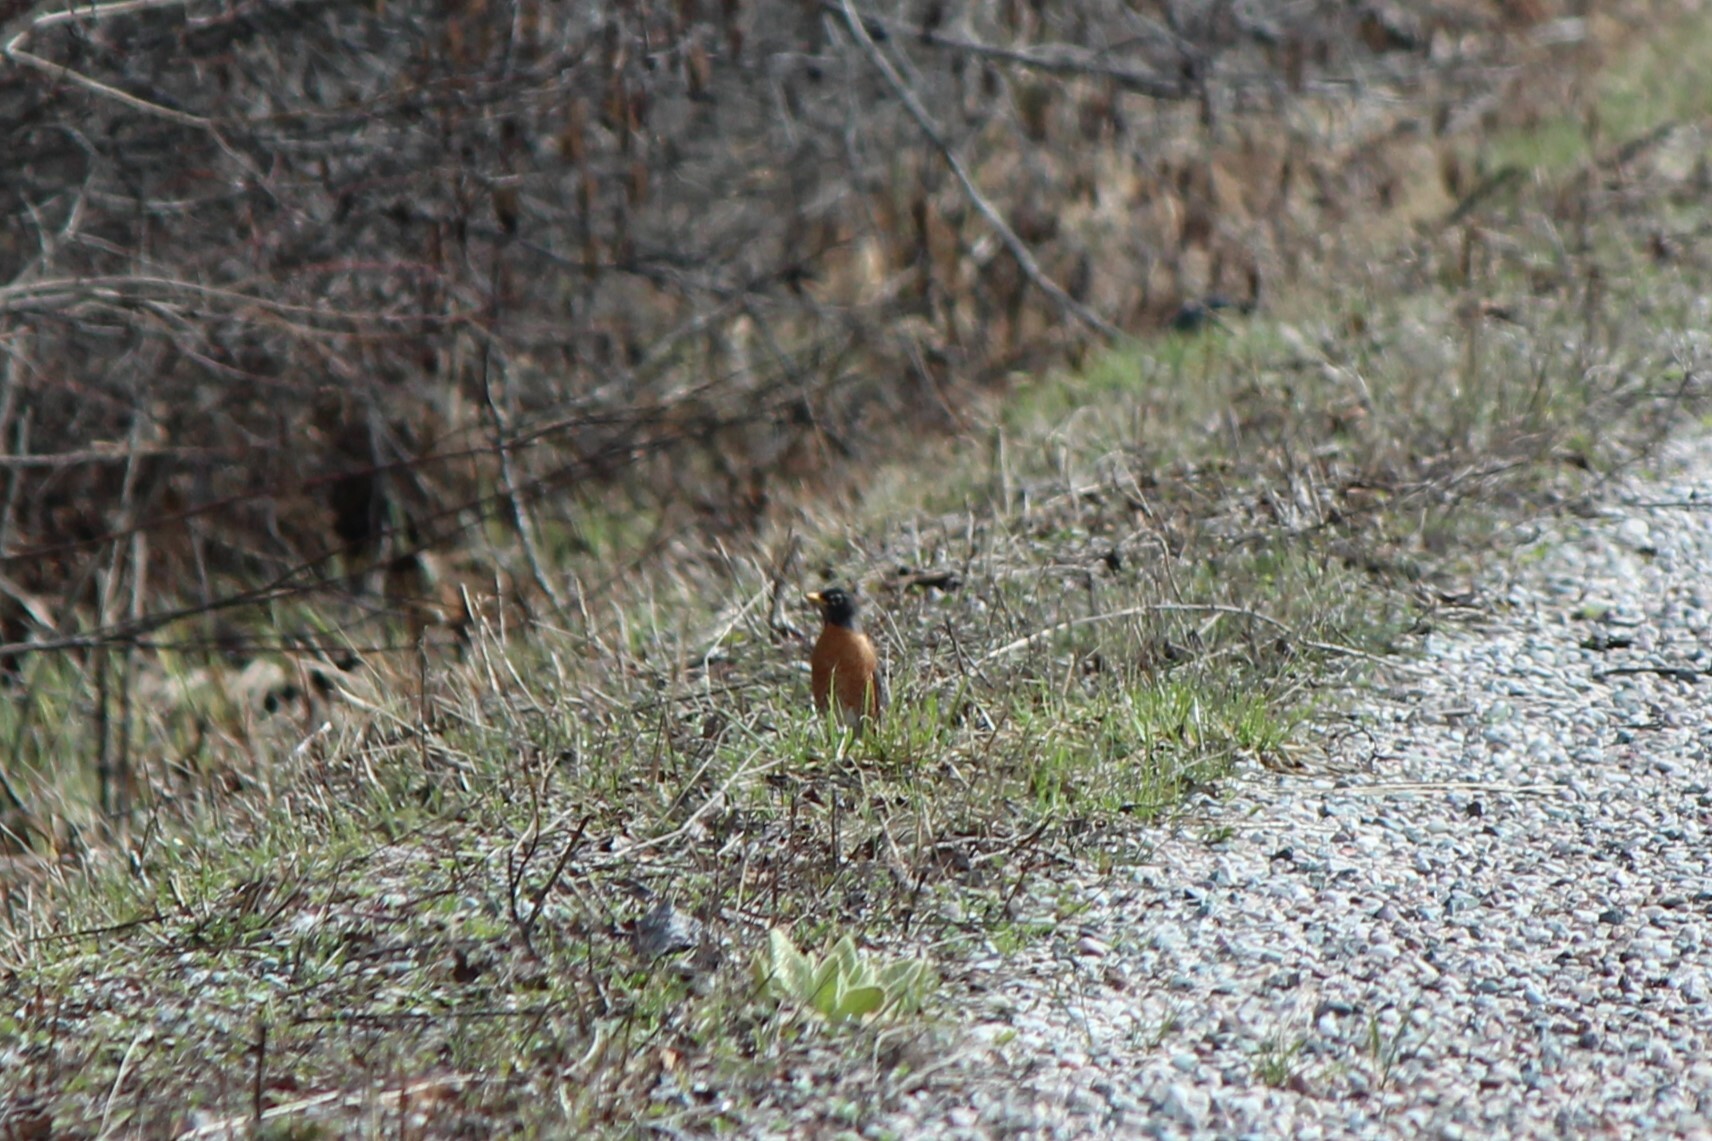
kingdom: Animalia
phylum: Chordata
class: Aves
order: Passeriformes
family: Turdidae
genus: Turdus
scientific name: Turdus migratorius
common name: American robin
